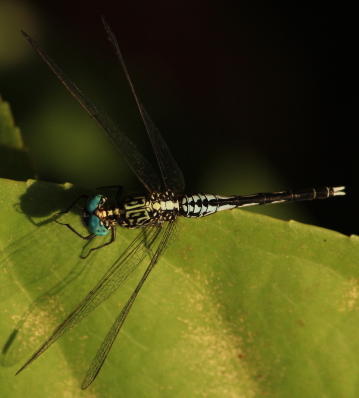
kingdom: Animalia
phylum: Arthropoda
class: Insecta
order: Odonata
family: Libellulidae
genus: Acisoma
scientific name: Acisoma variegatum
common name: Slender pintail
